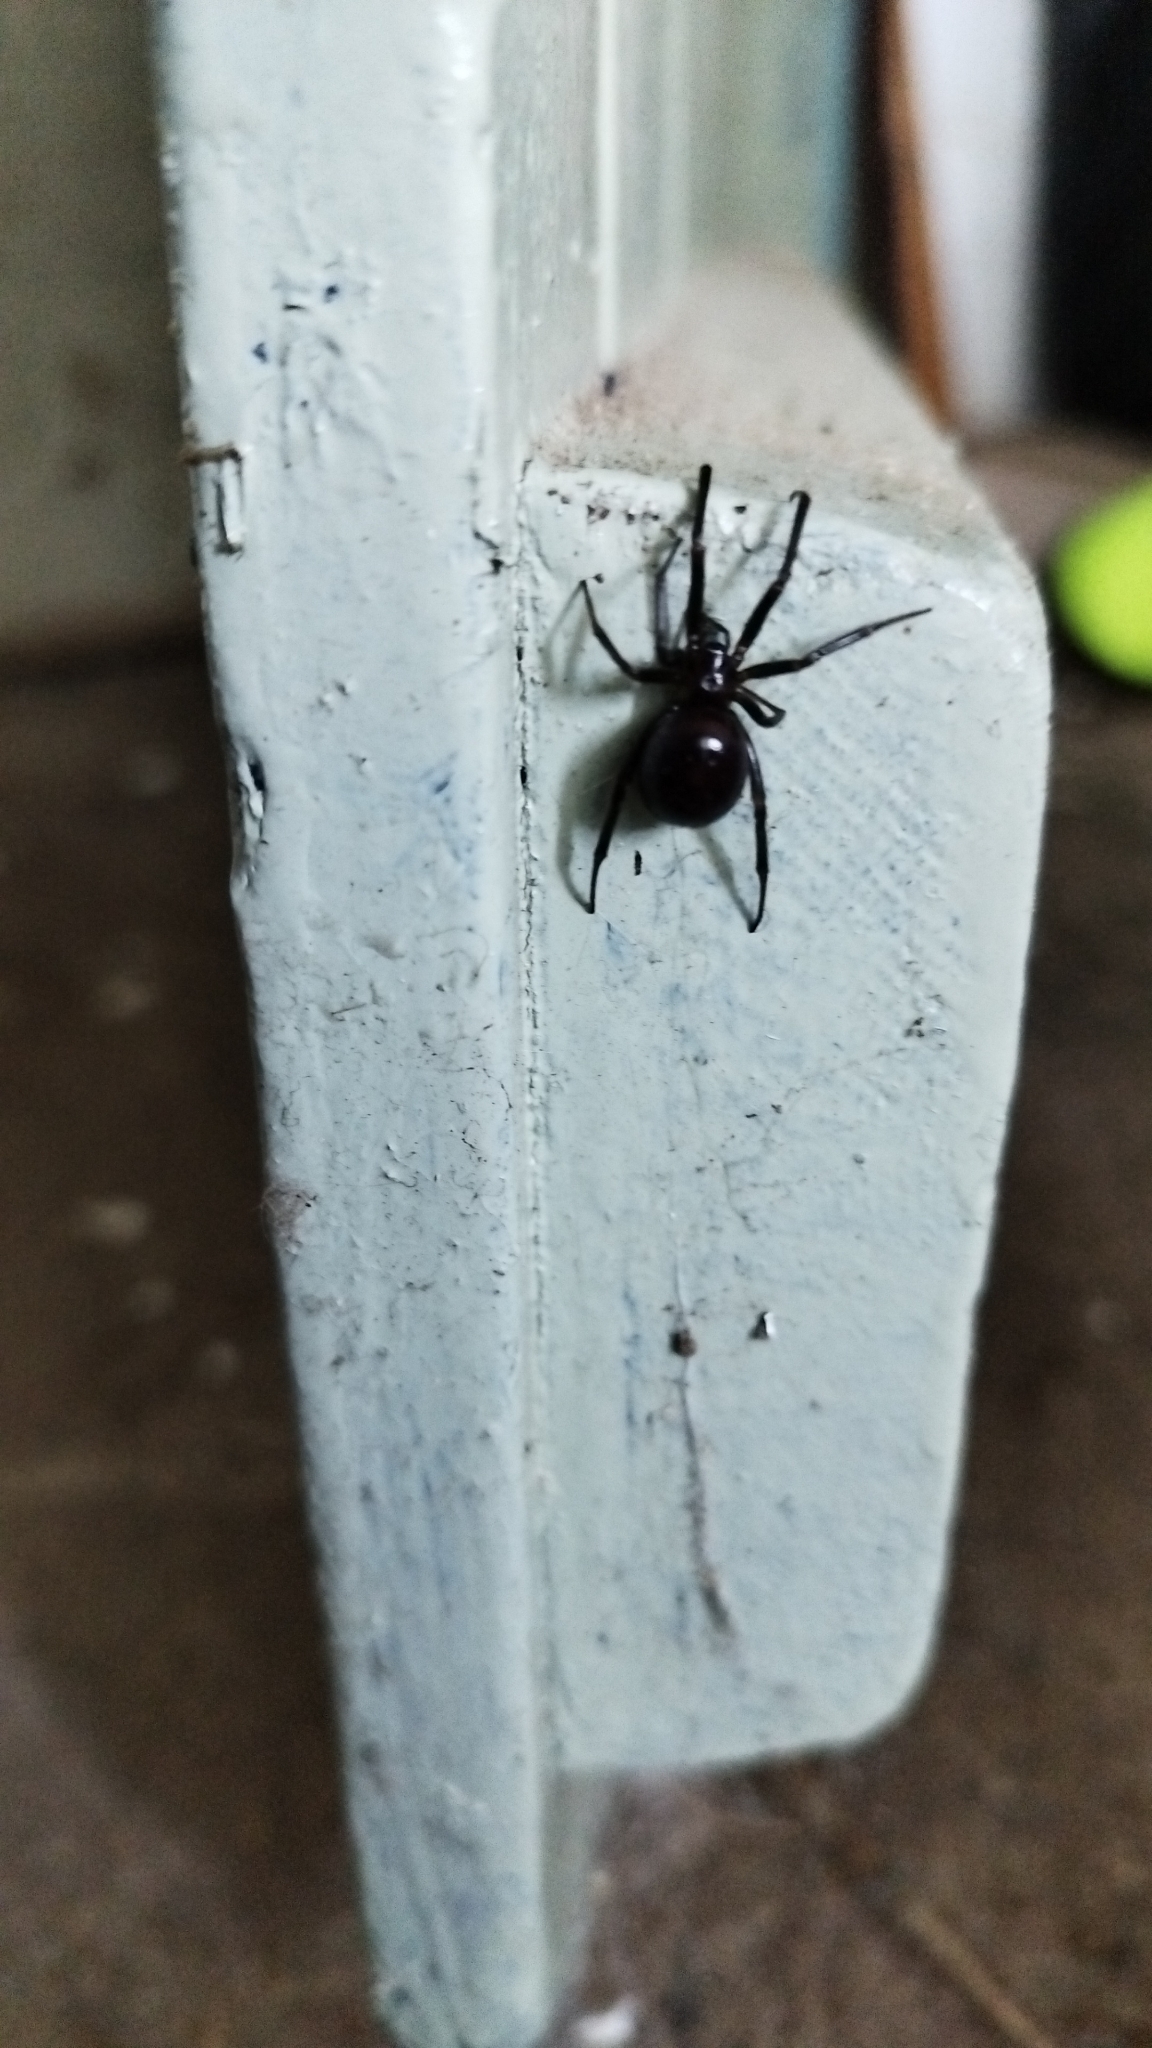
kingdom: Animalia
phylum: Arthropoda
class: Arachnida
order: Araneae
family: Theridiidae
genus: Steatoda
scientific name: Steatoda grossa
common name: False black widow
